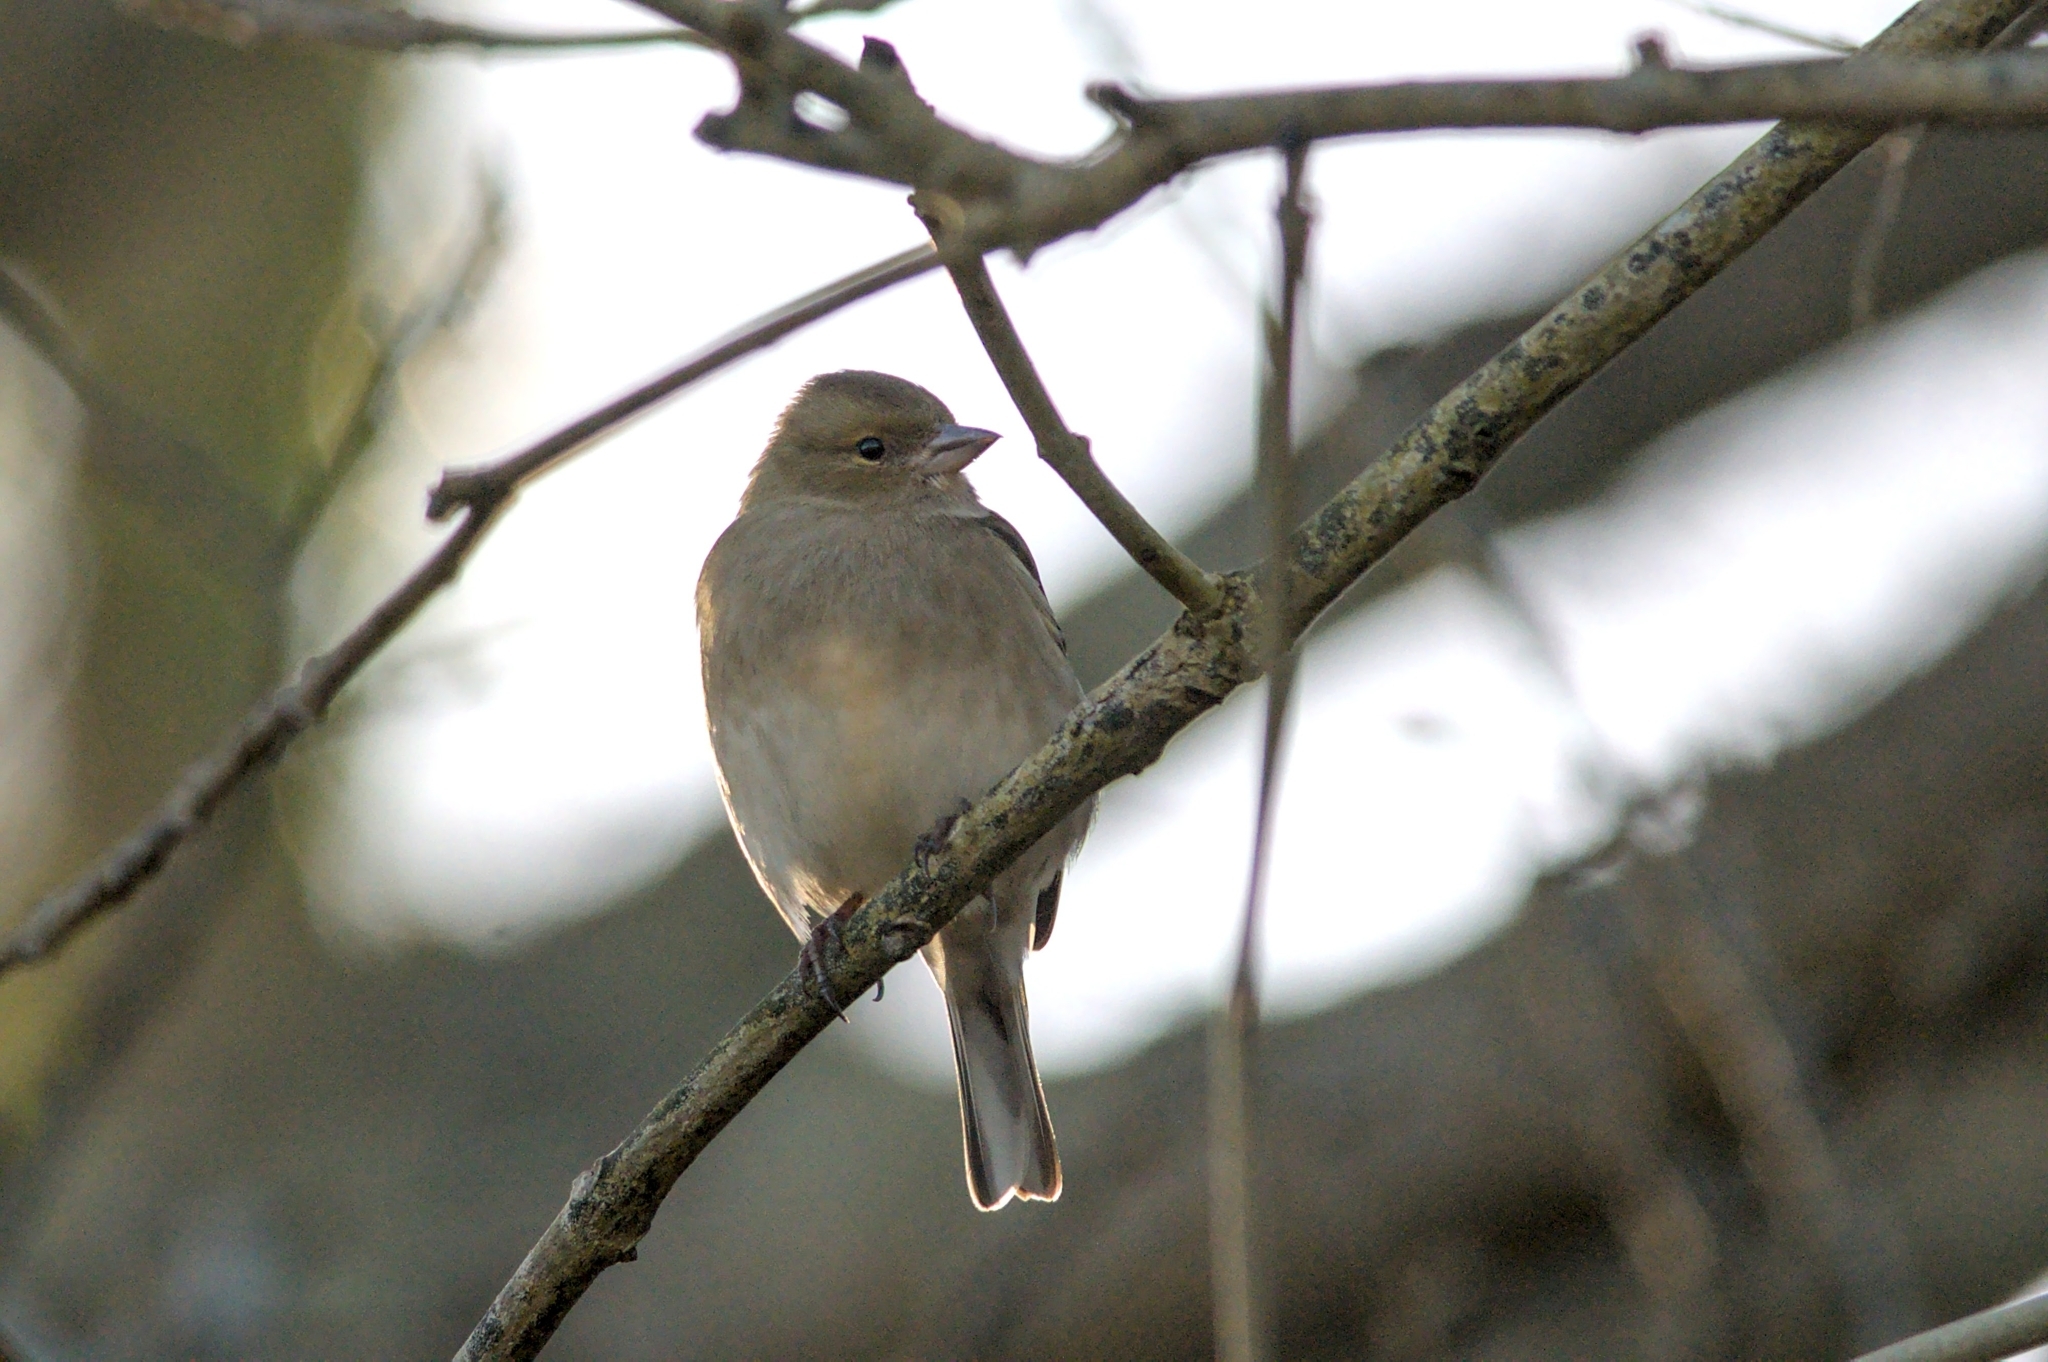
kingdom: Animalia
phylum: Chordata
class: Aves
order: Passeriformes
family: Fringillidae
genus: Fringilla
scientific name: Fringilla coelebs
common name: Common chaffinch
